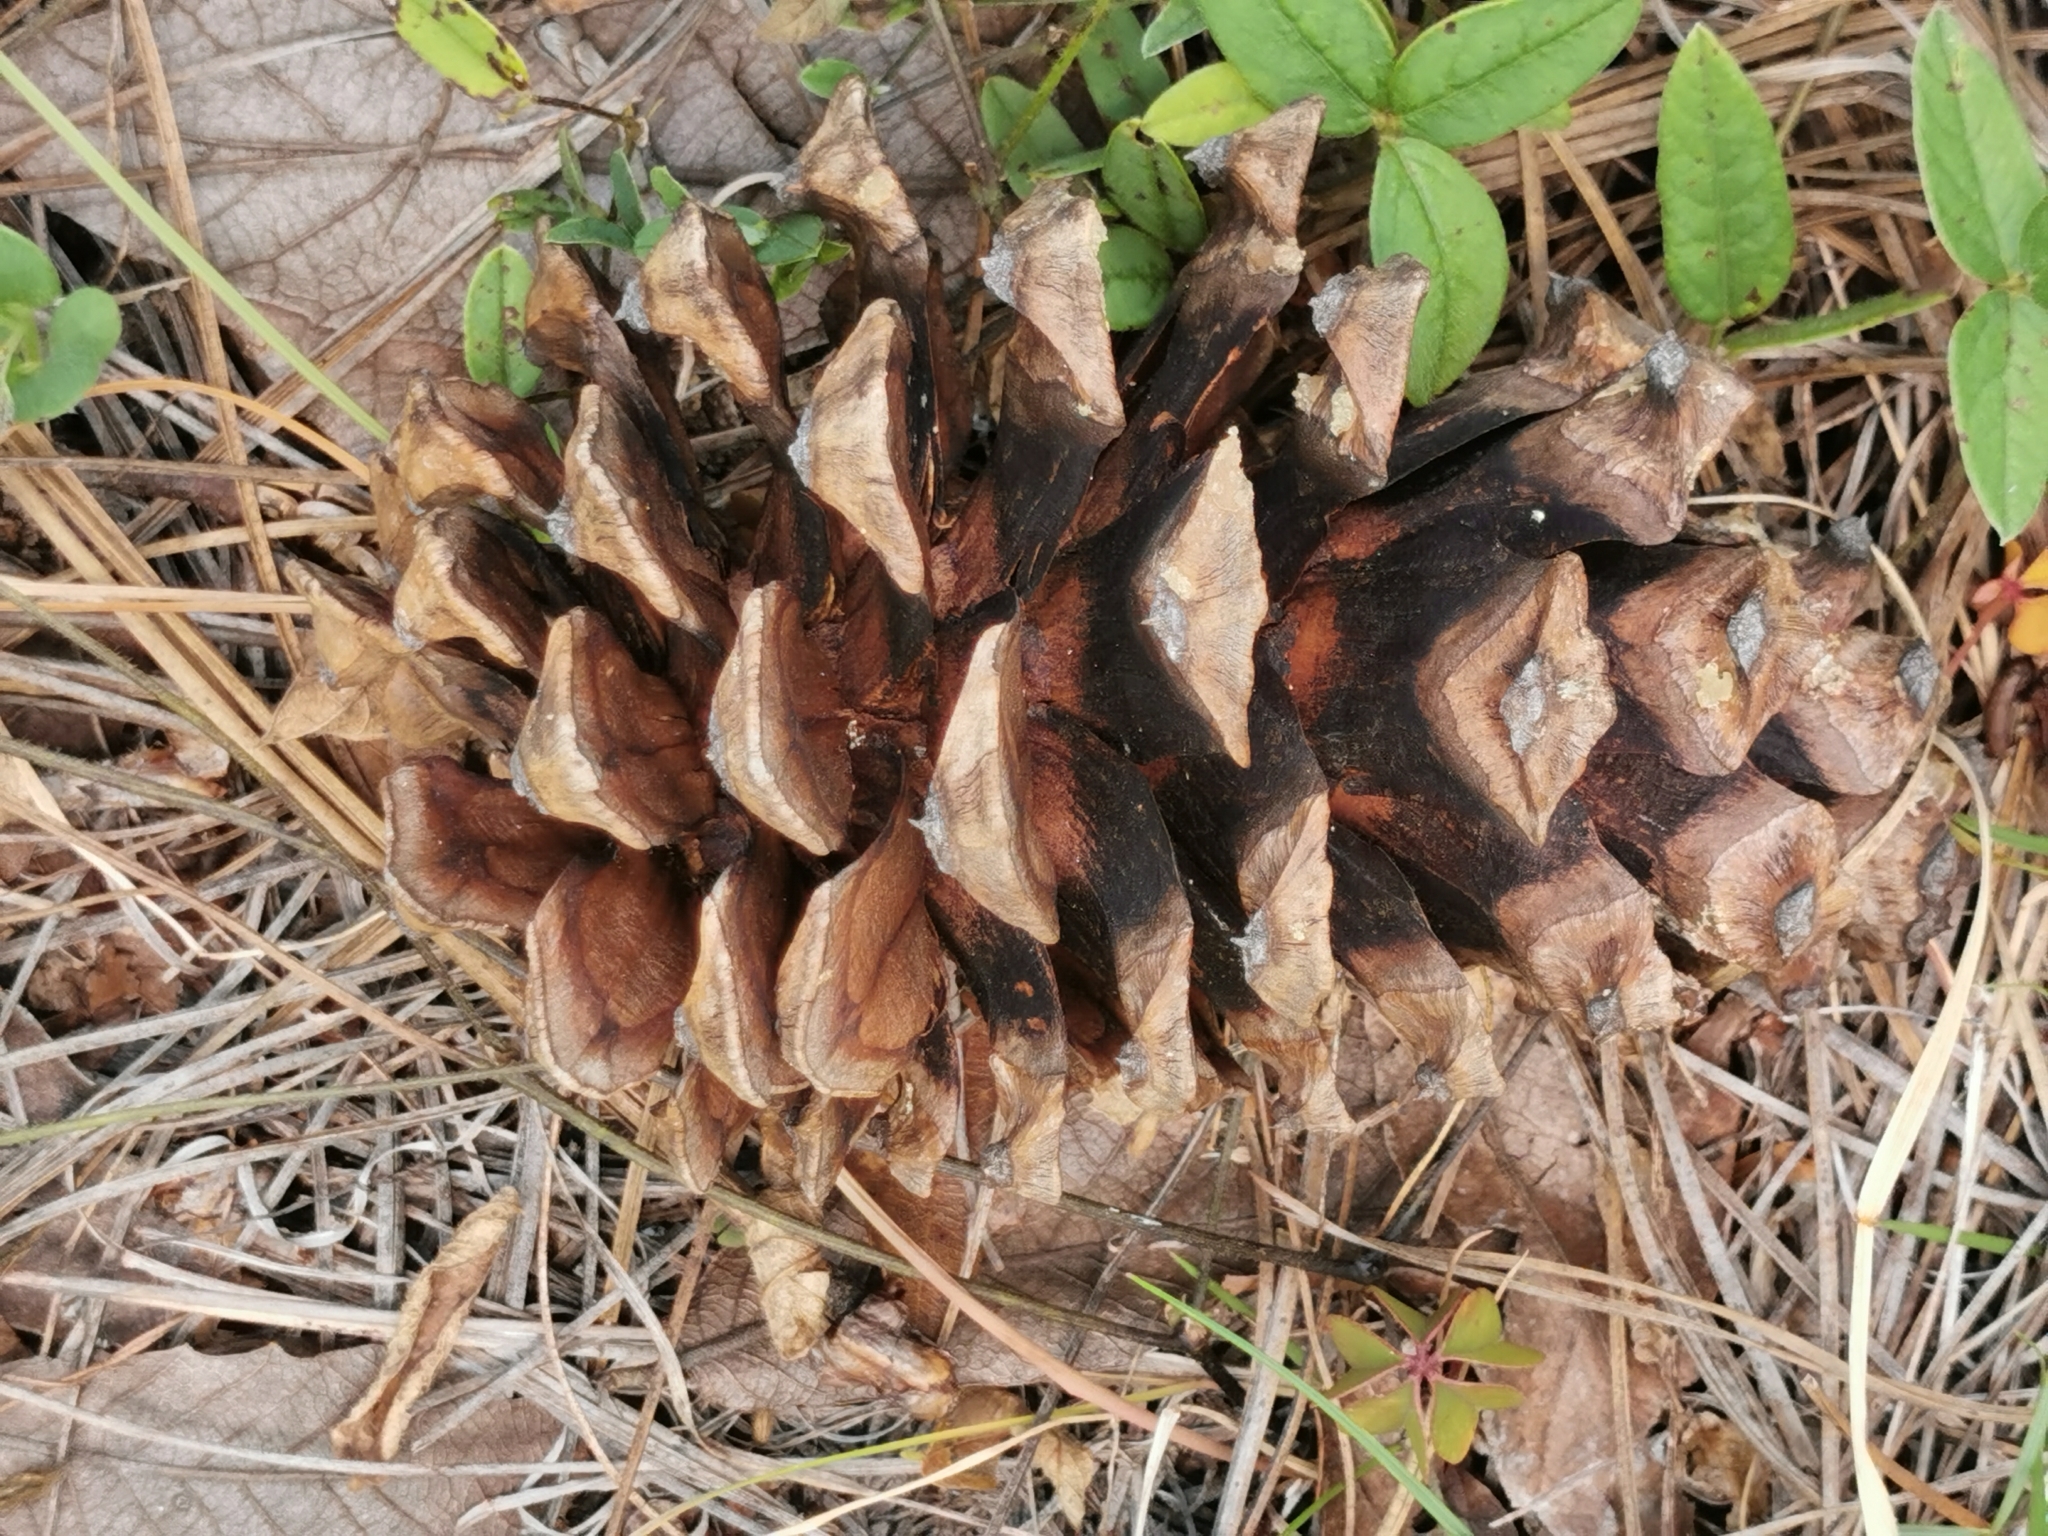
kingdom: Plantae
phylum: Tracheophyta
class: Pinopsida
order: Pinales
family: Pinaceae
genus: Pinus
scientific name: Pinus engelmannii
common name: Apache pine
